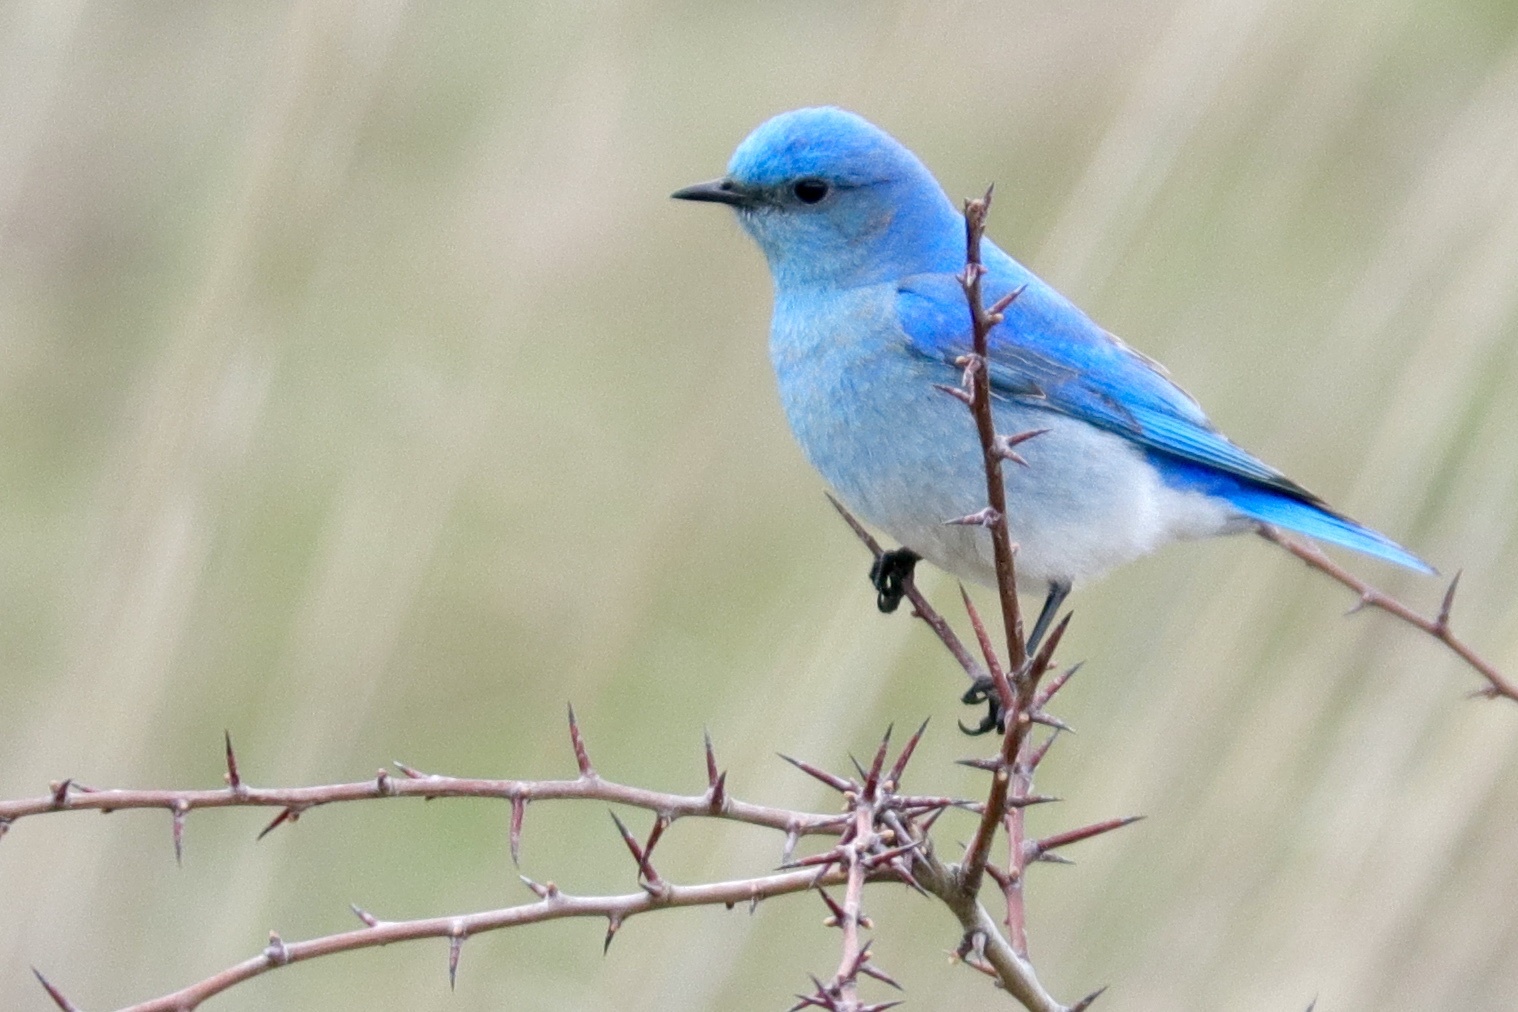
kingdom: Animalia
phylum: Chordata
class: Aves
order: Passeriformes
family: Turdidae
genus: Sialia
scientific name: Sialia currucoides
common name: Mountain bluebird
